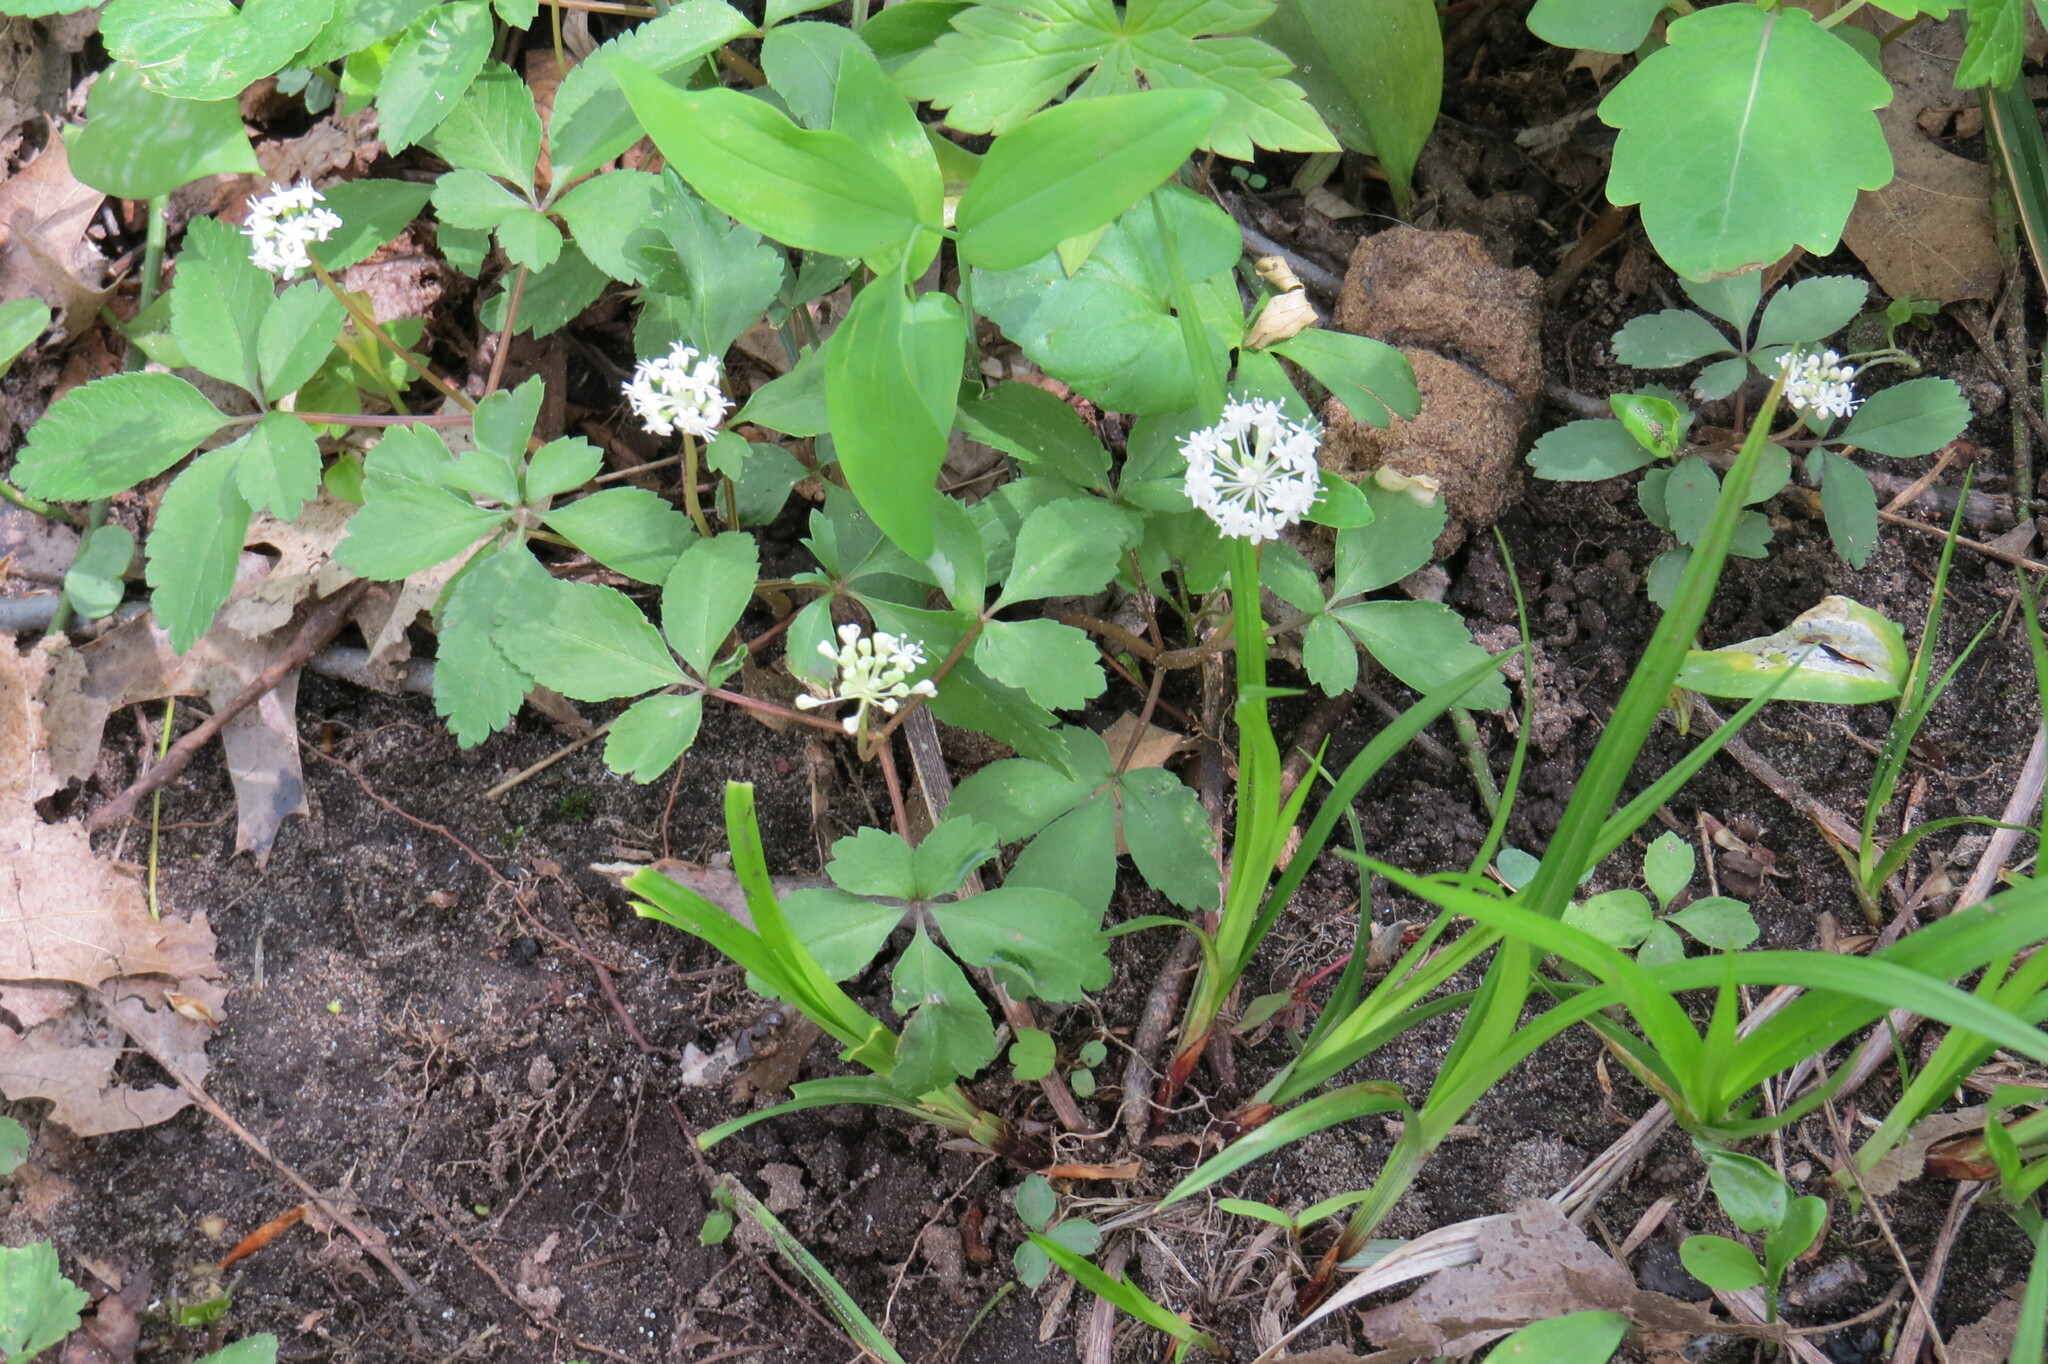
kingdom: Plantae
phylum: Tracheophyta
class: Magnoliopsida
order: Apiales
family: Araliaceae
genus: Panax
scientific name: Panax trifolius
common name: Dwarf ginseng
